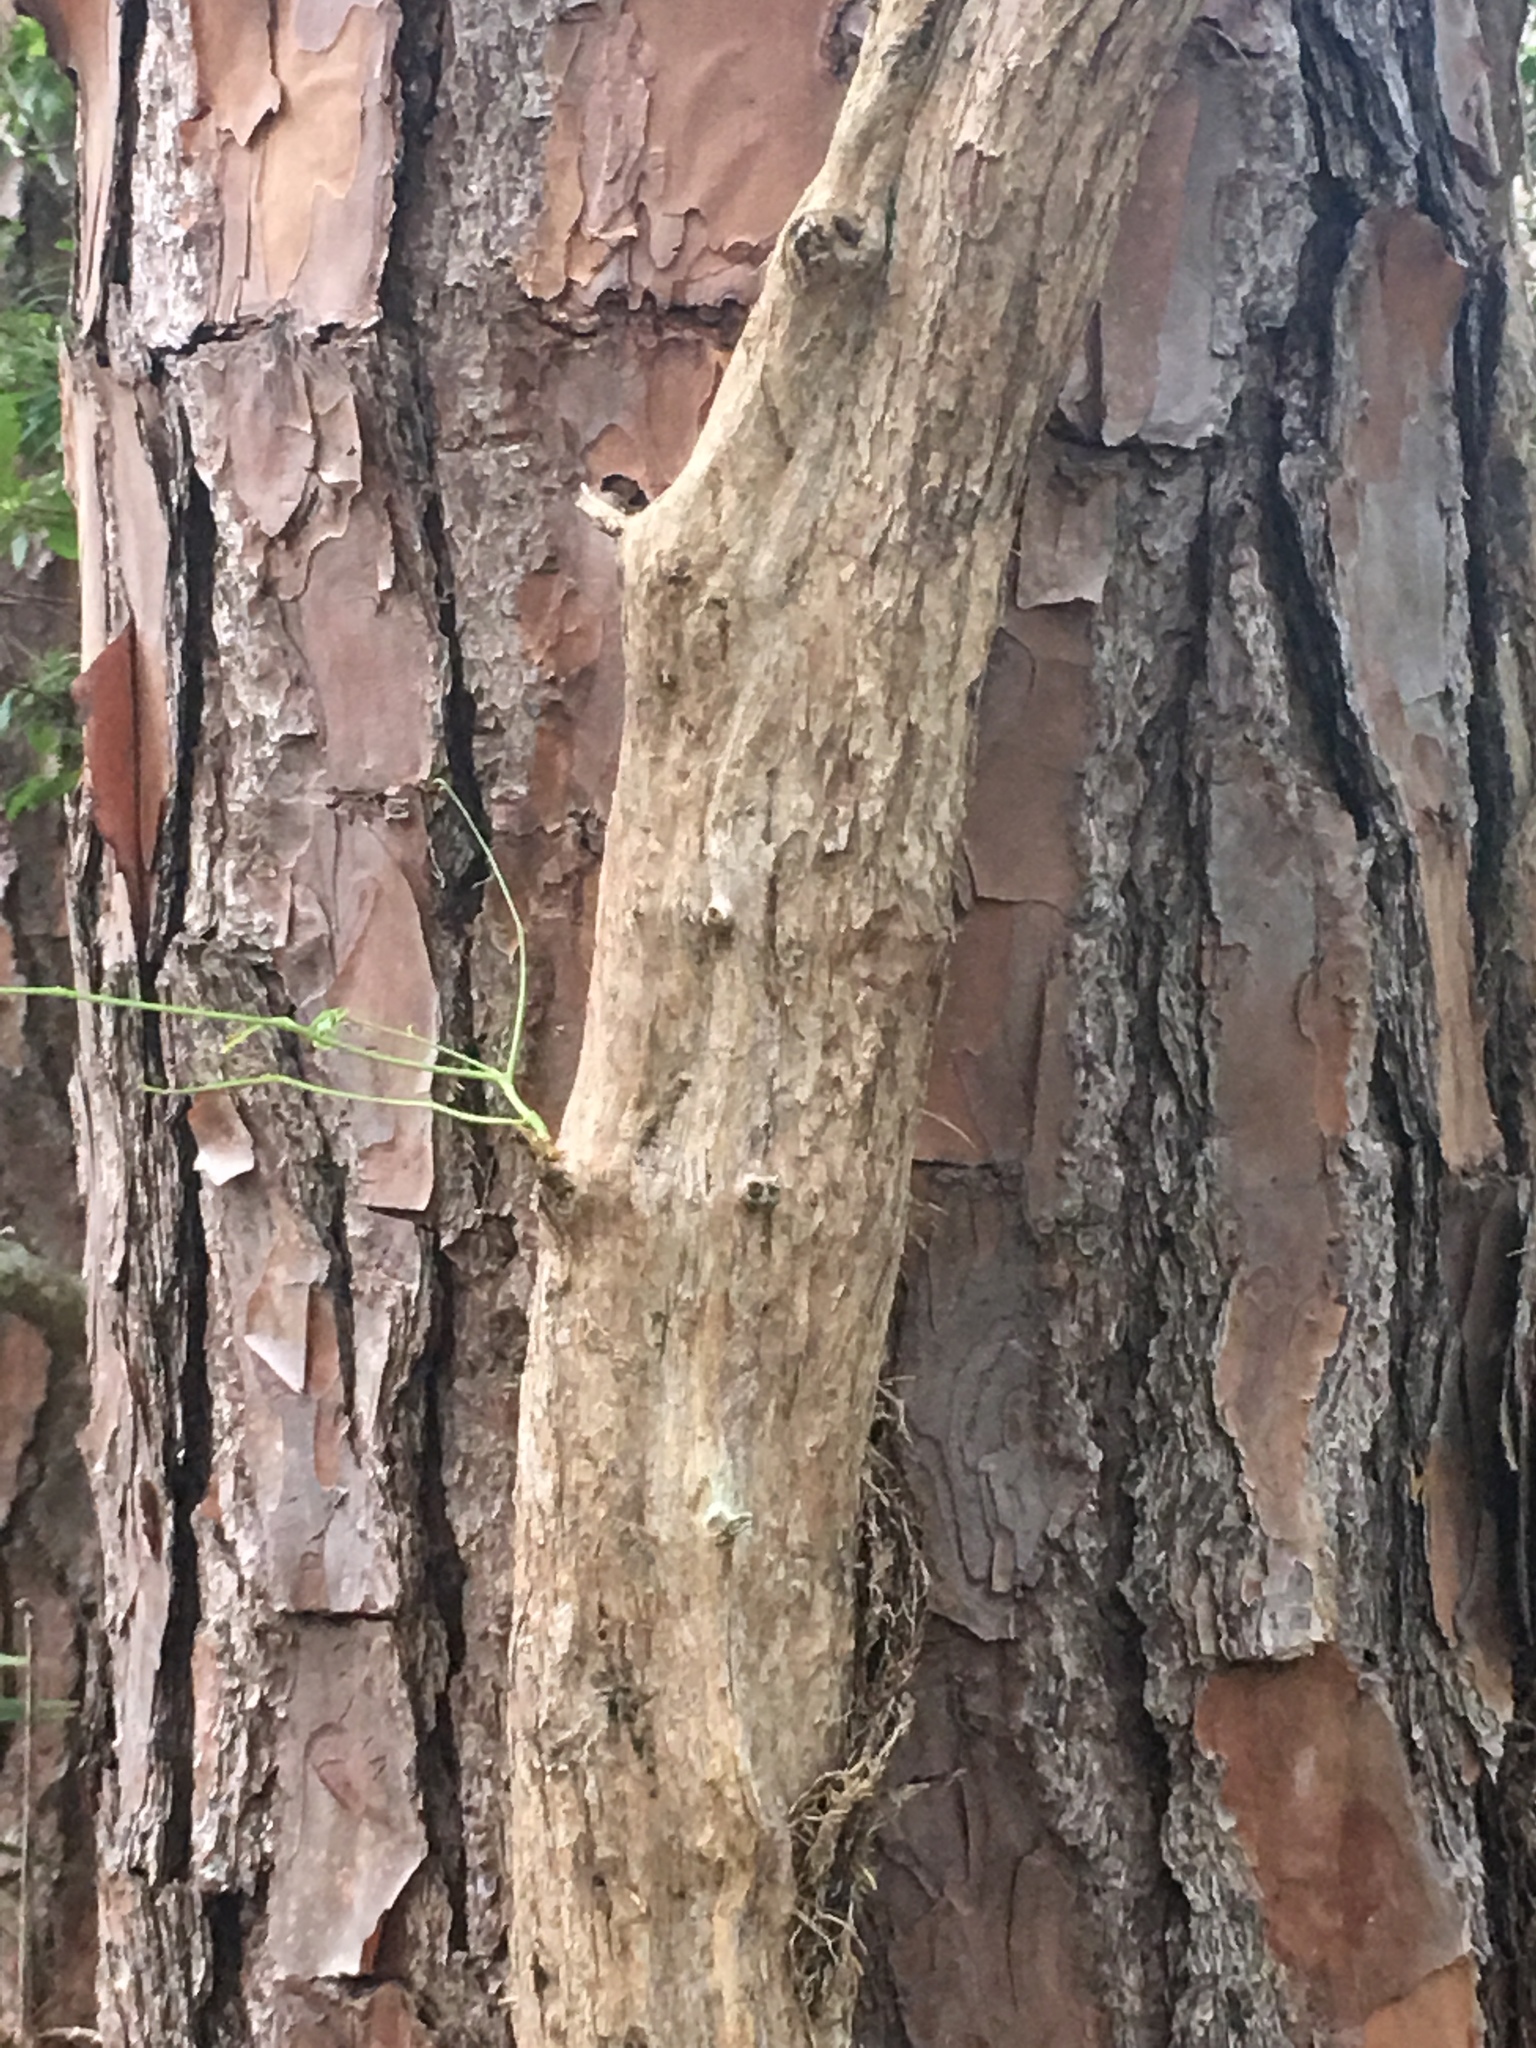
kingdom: Plantae
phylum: Tracheophyta
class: Magnoliopsida
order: Lamiales
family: Bignoniaceae
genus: Campsis
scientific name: Campsis radicans
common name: Trumpet-creeper
